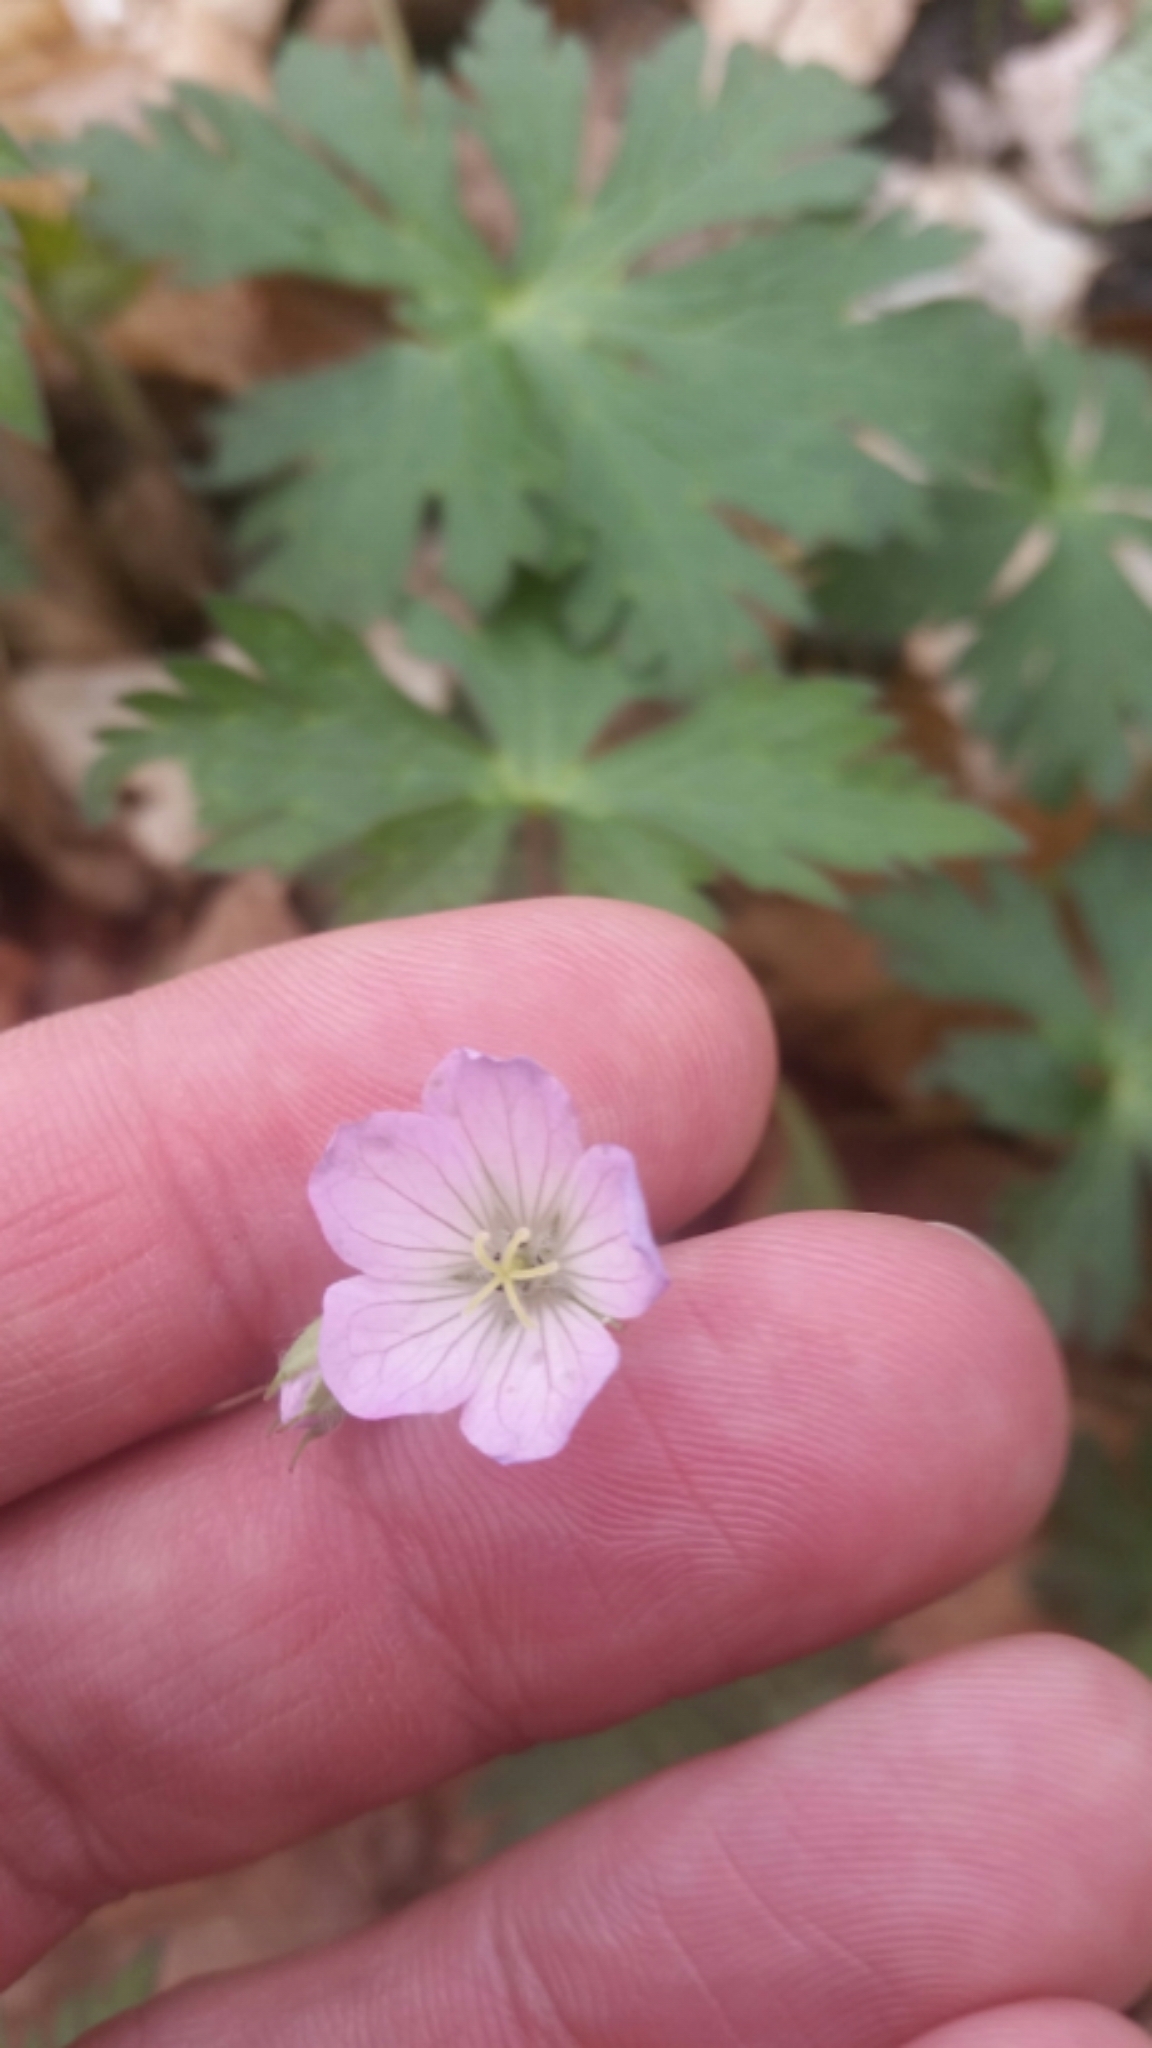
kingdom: Plantae
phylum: Tracheophyta
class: Magnoliopsida
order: Geraniales
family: Geraniaceae
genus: Geranium
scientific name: Geranium maculatum
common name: Spotted geranium
